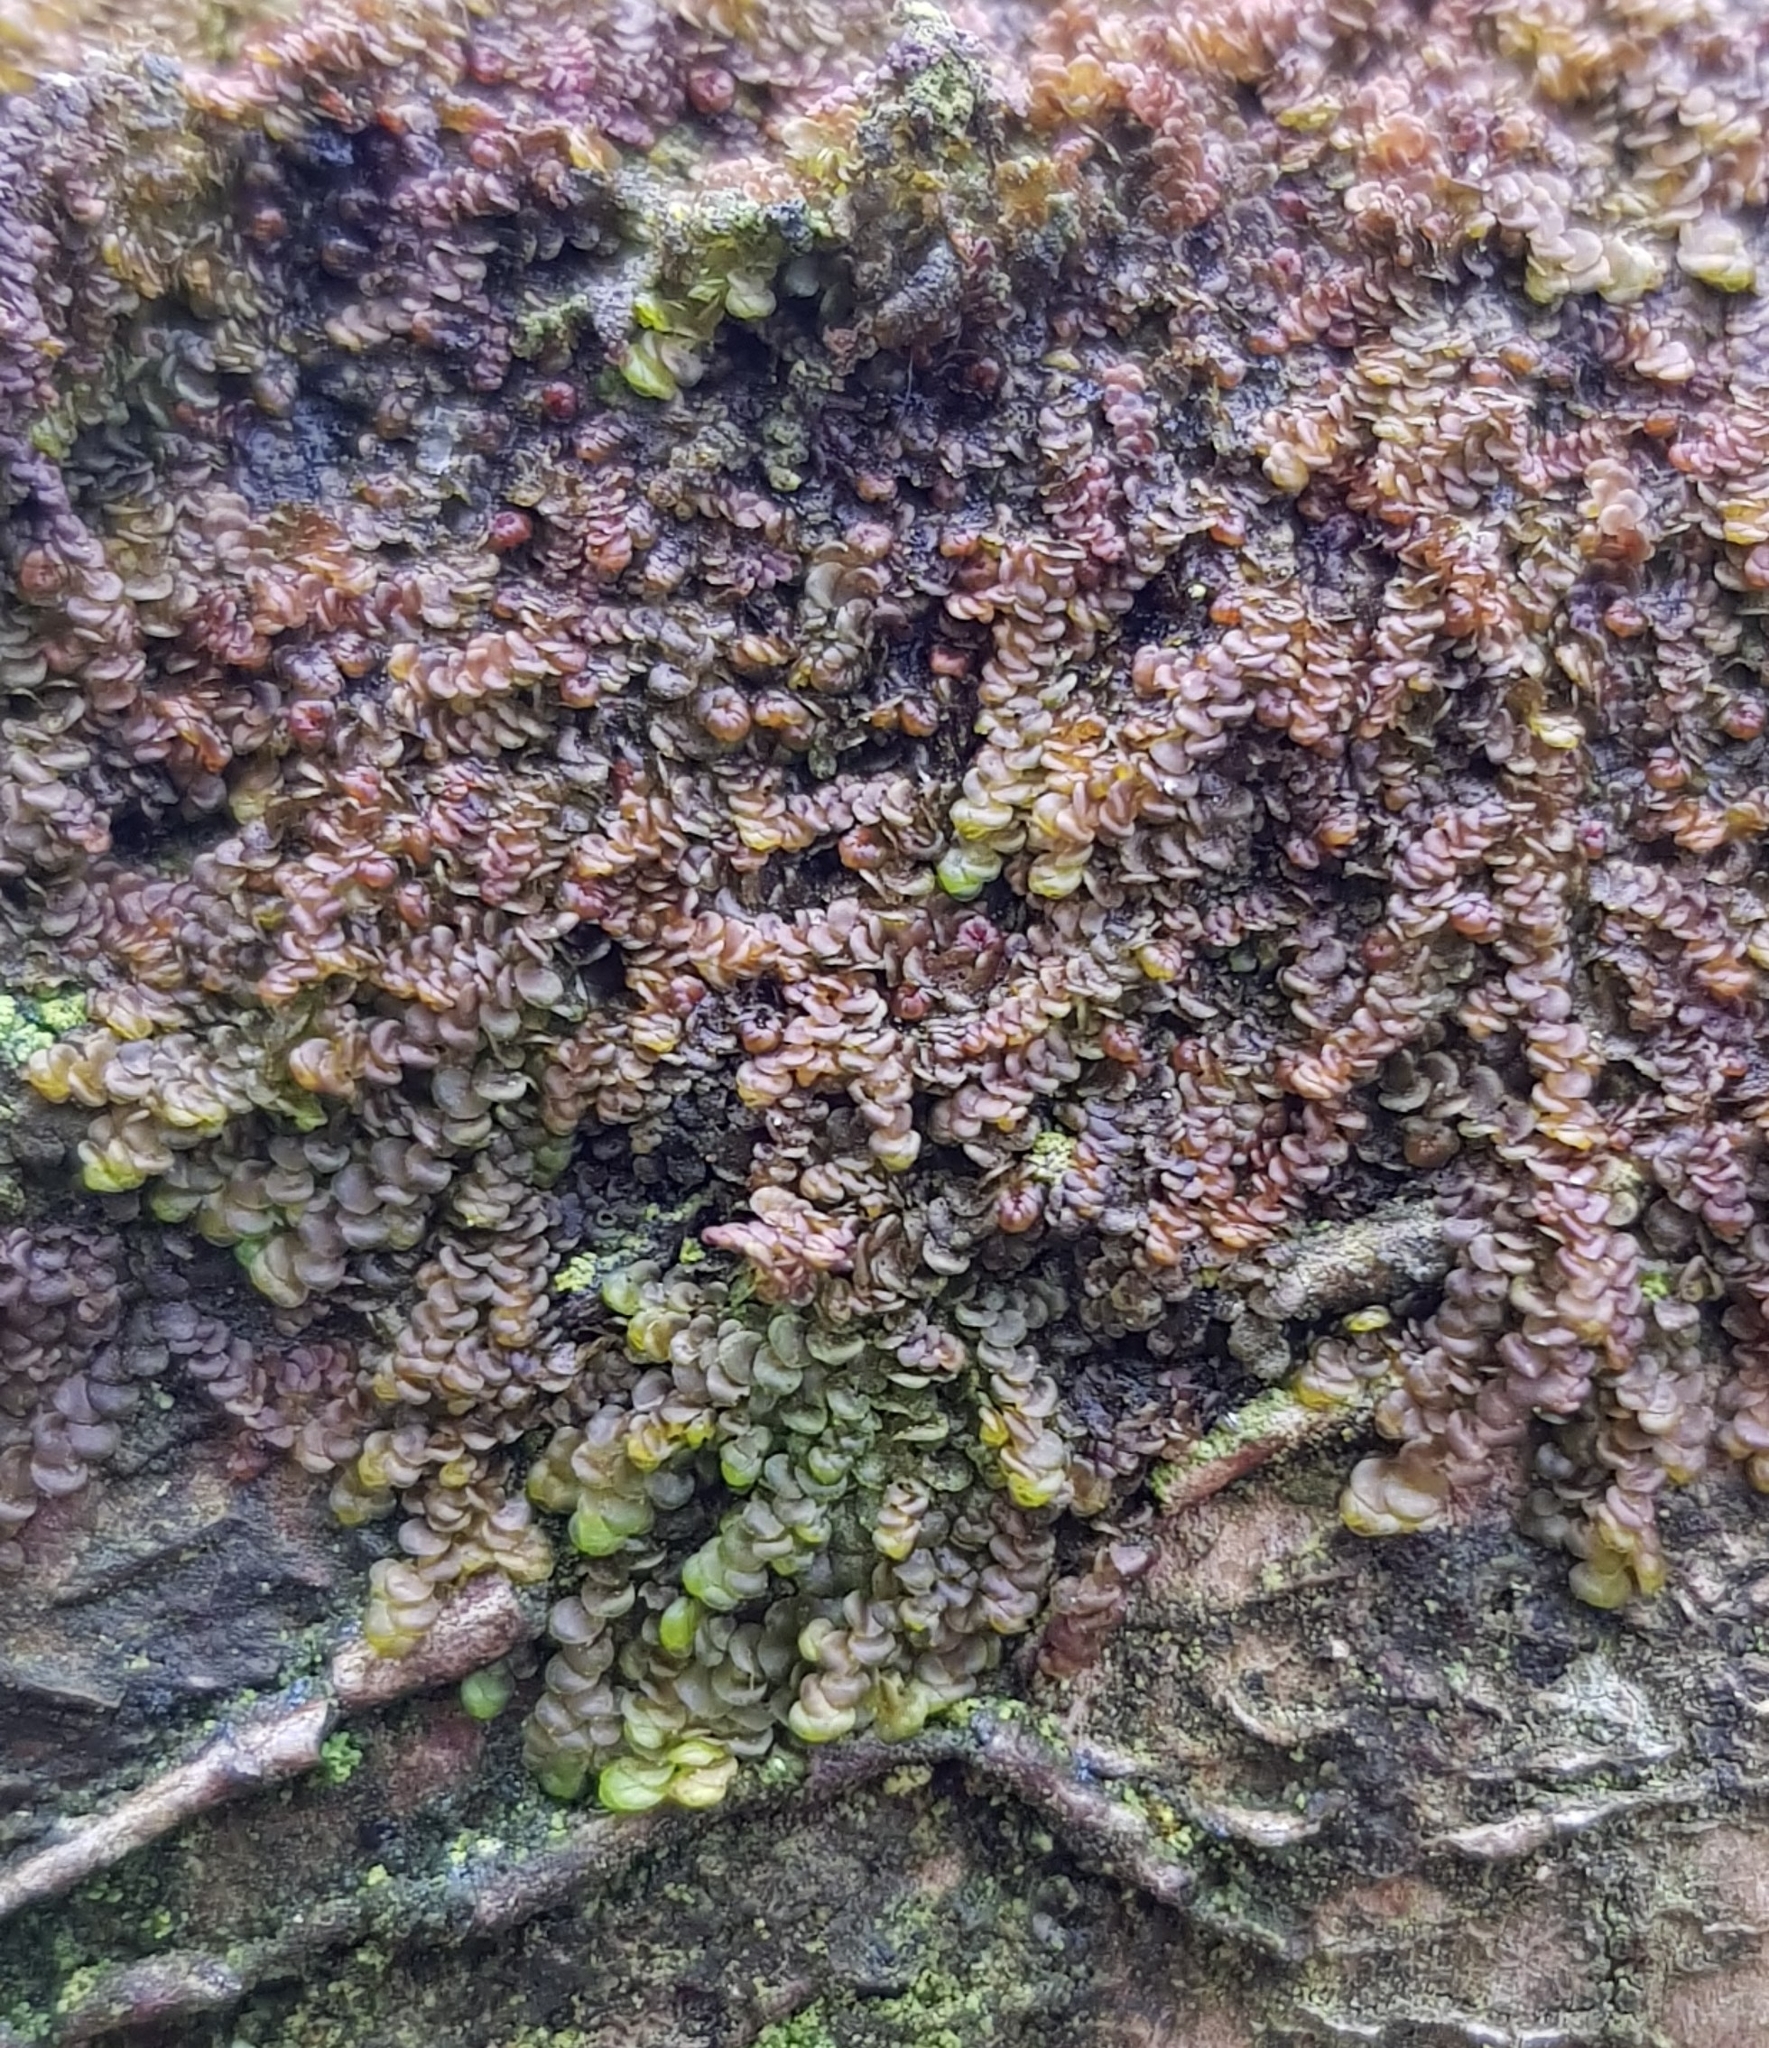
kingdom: Plantae
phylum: Marchantiophyta
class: Jungermanniopsida
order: Porellales
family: Frullaniaceae
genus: Frullania
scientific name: Frullania dilatata
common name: Dilated scalewort
